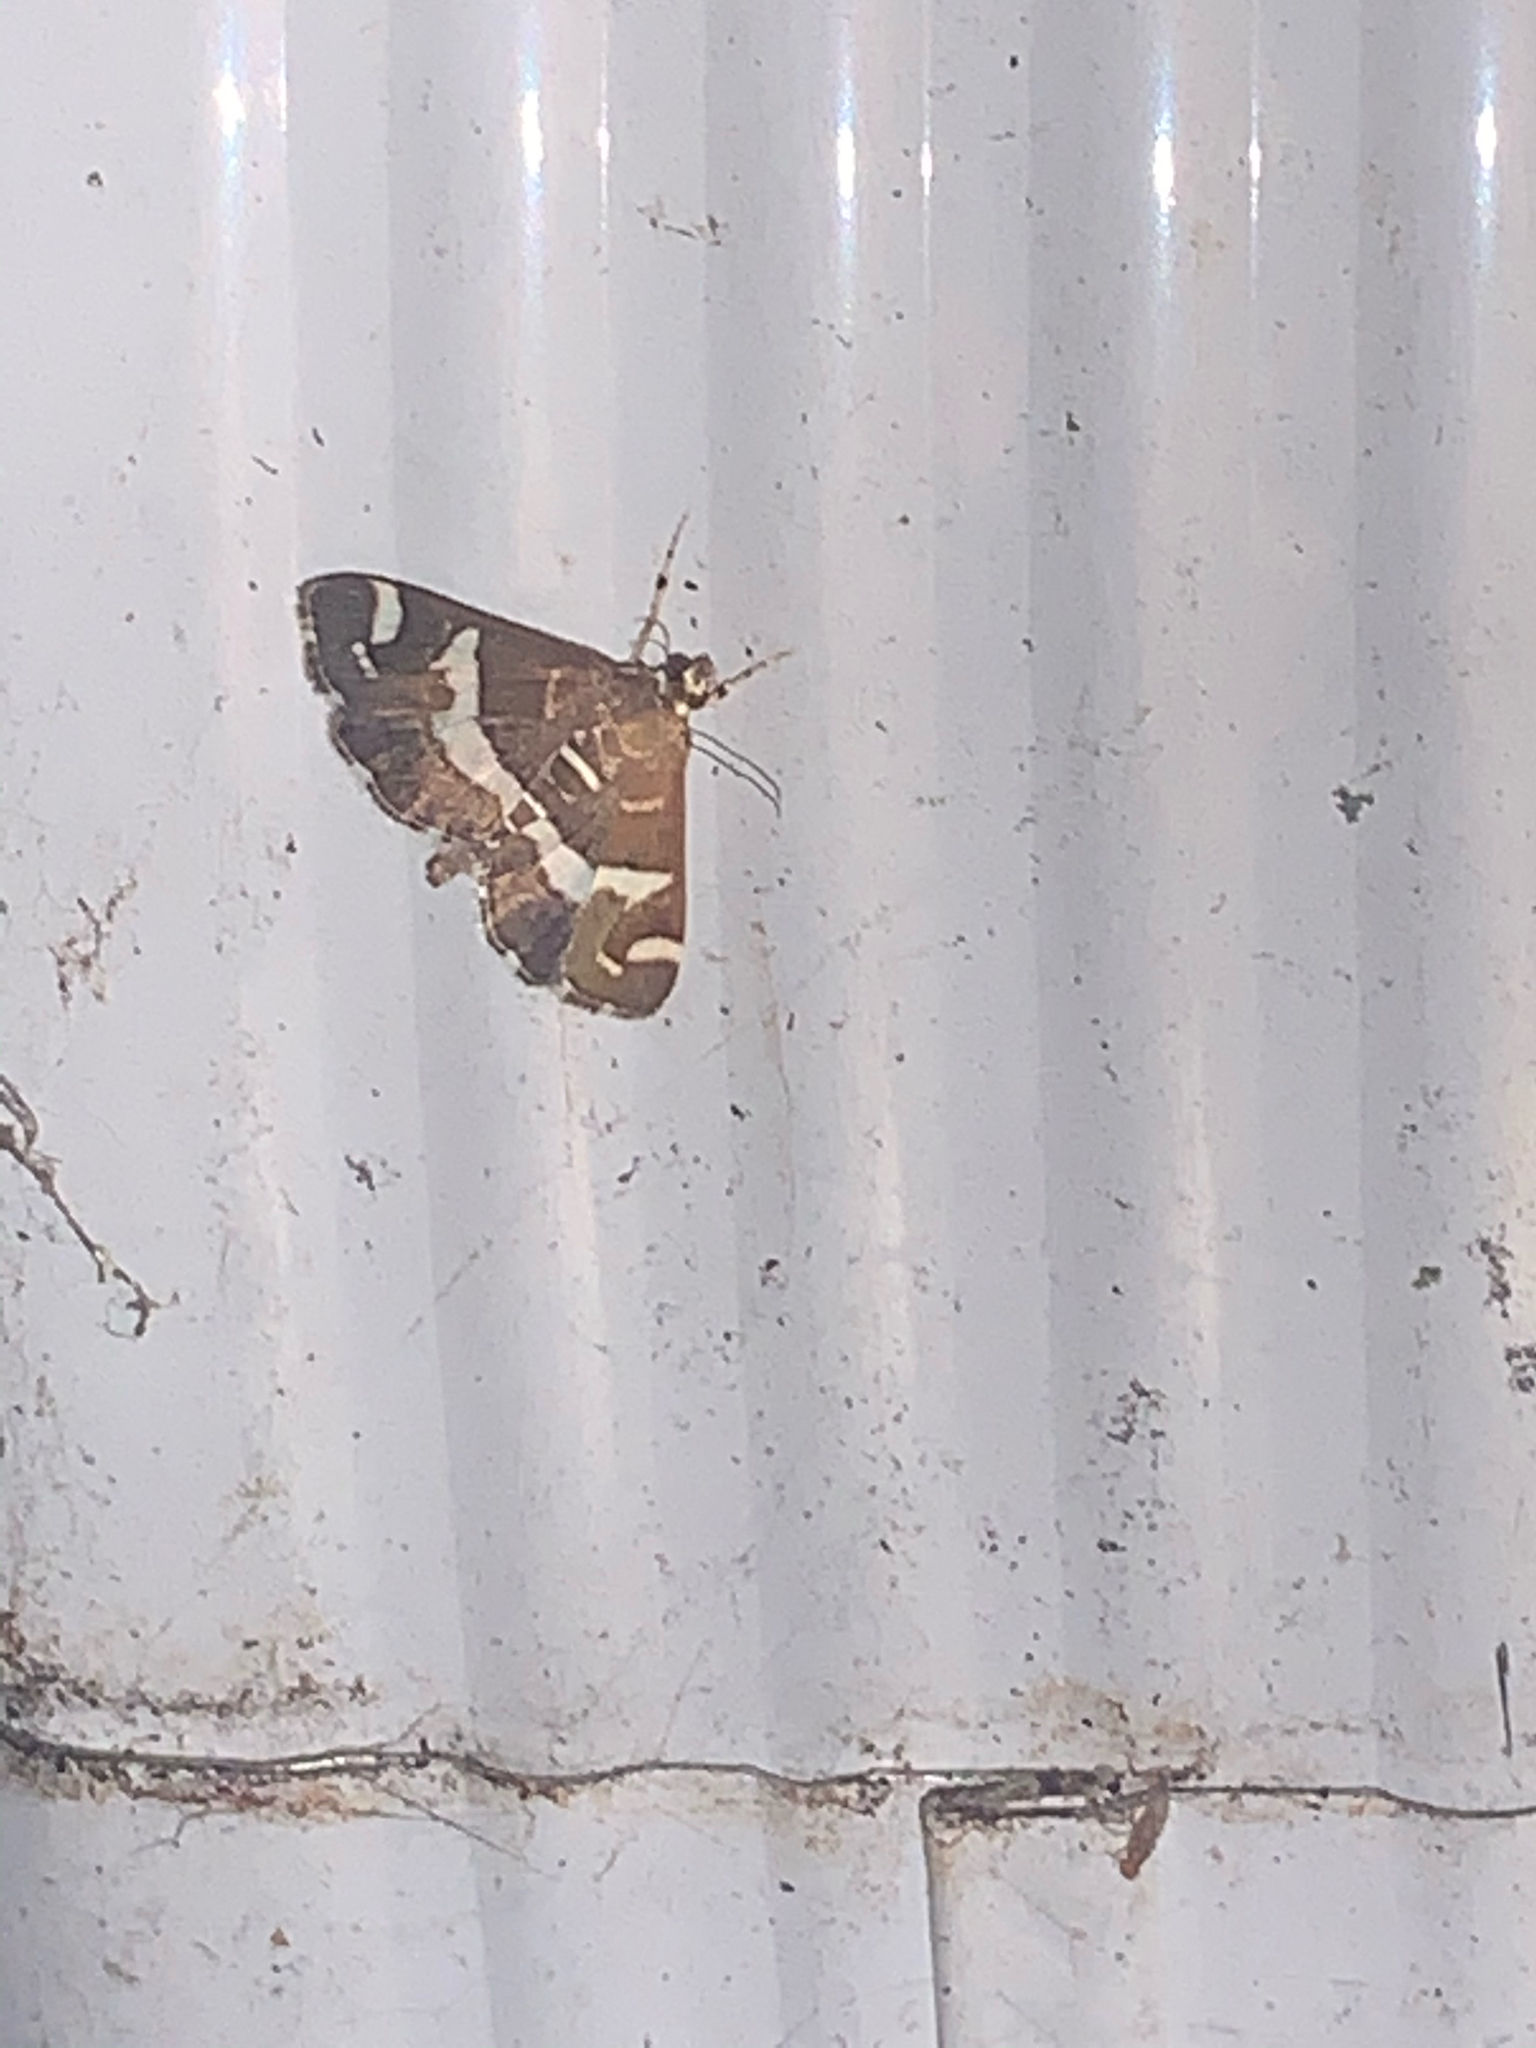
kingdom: Animalia
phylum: Arthropoda
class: Insecta
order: Lepidoptera
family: Crambidae
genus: Spoladea
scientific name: Spoladea recurvalis
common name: Beet webworm moth
